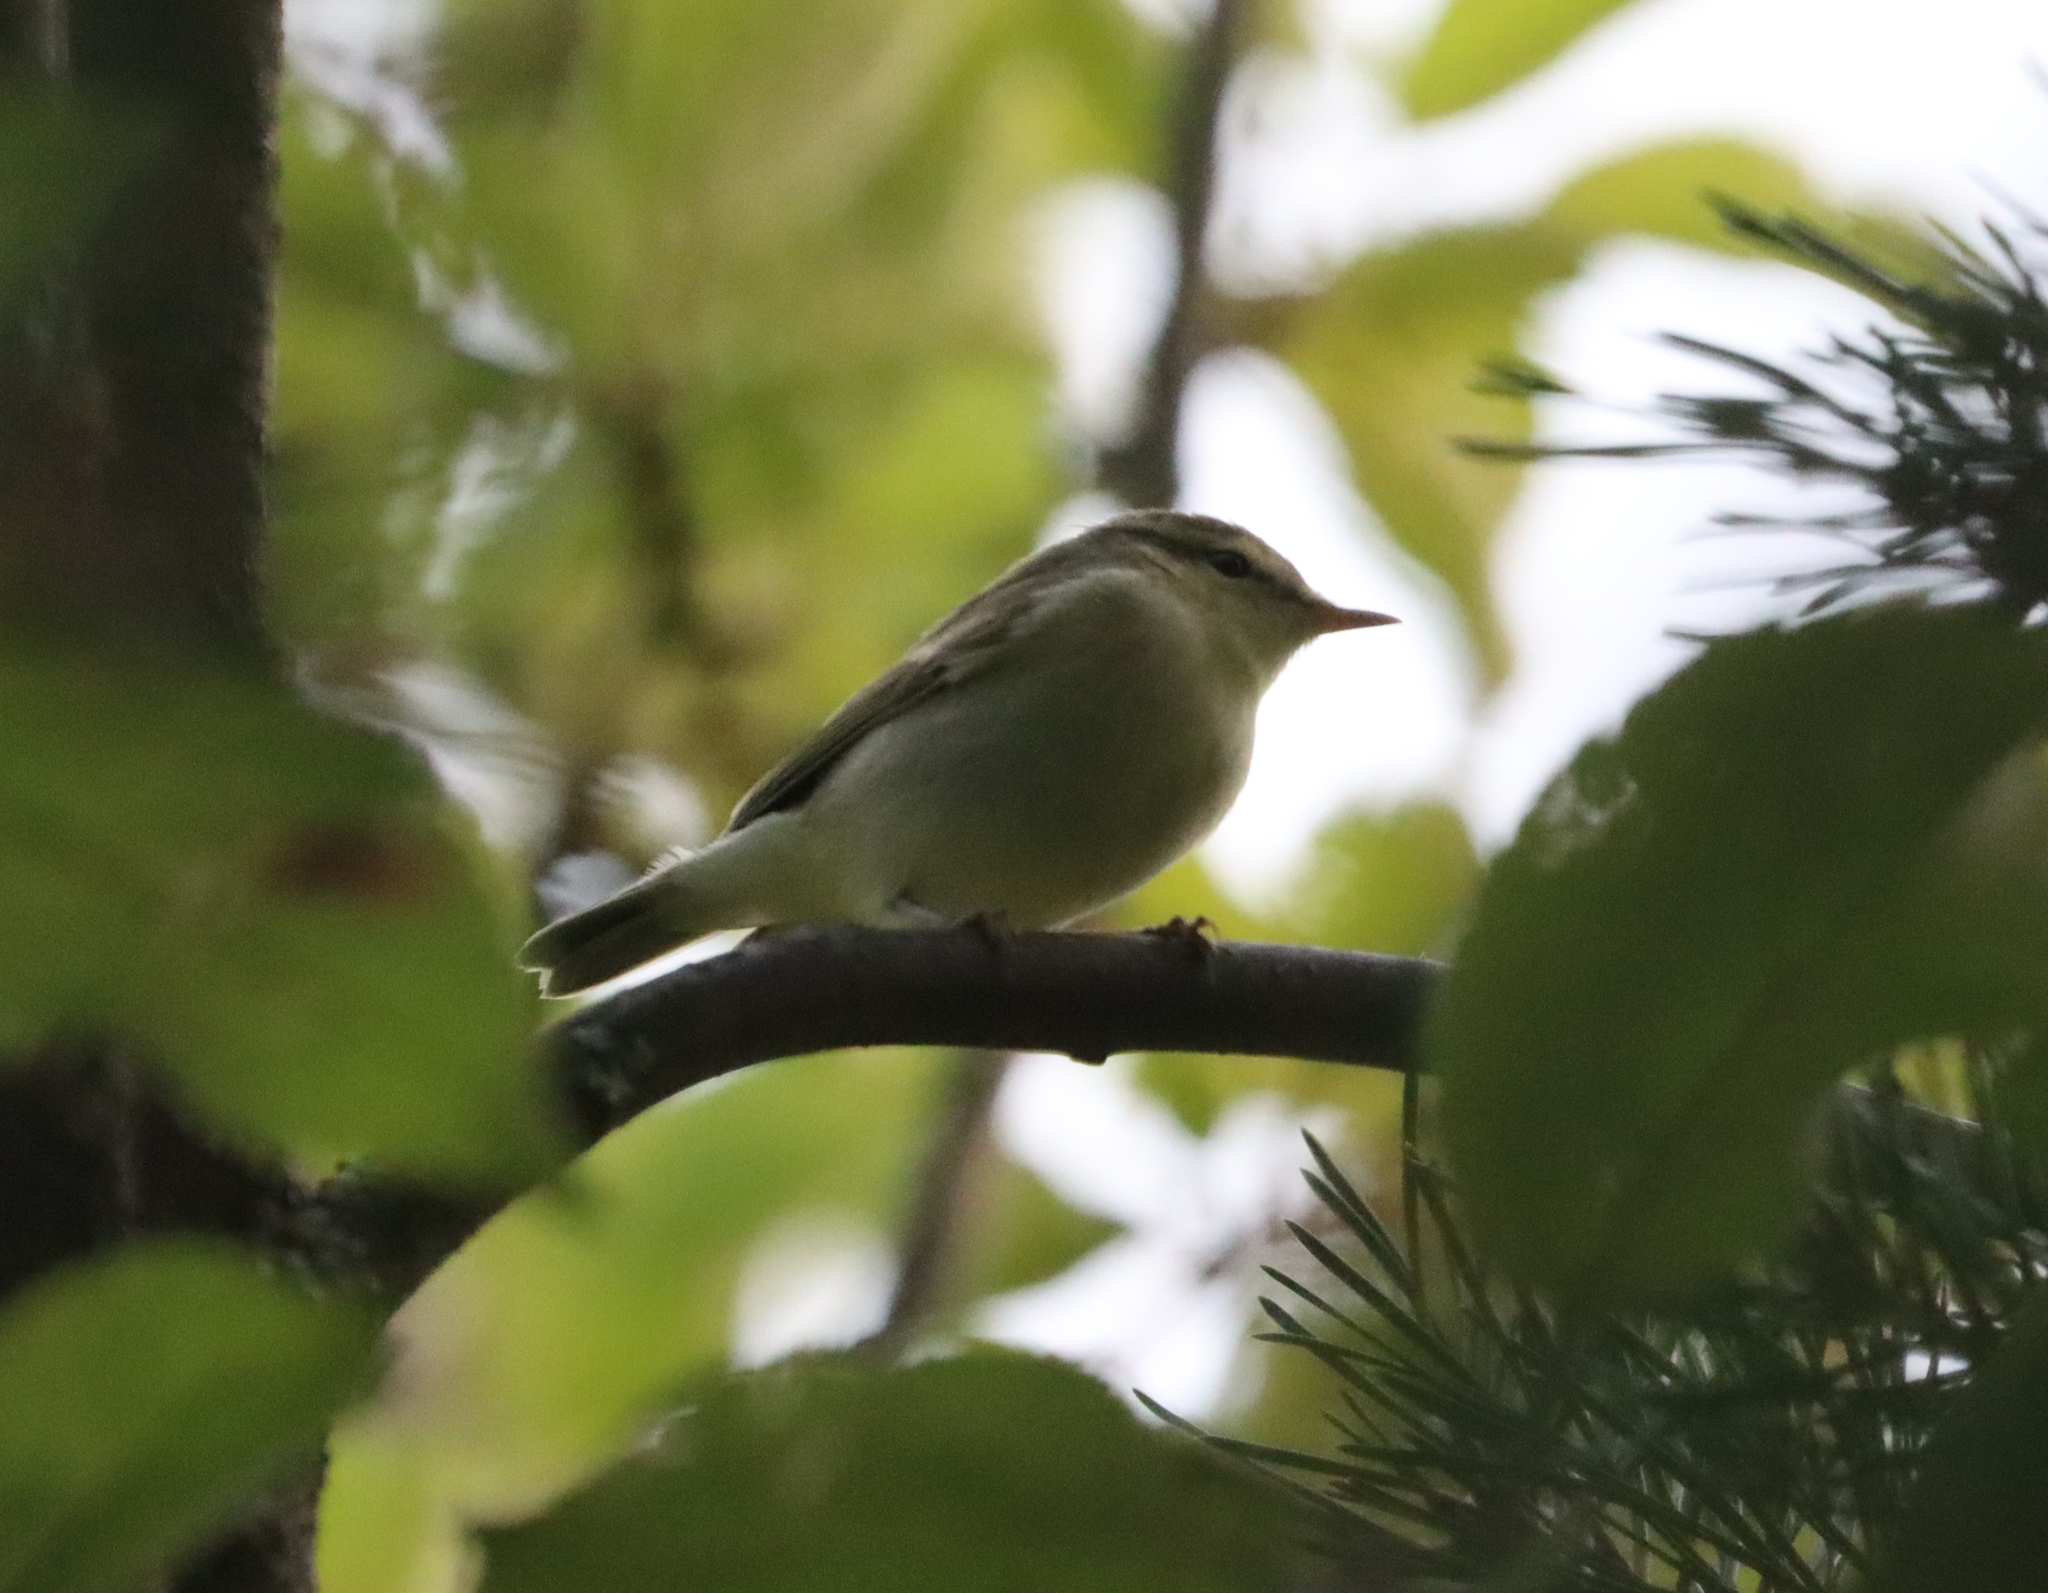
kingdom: Animalia
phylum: Chordata
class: Aves
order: Passeriformes
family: Phylloscopidae
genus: Phylloscopus
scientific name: Phylloscopus trochiloides
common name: Greenish warbler
